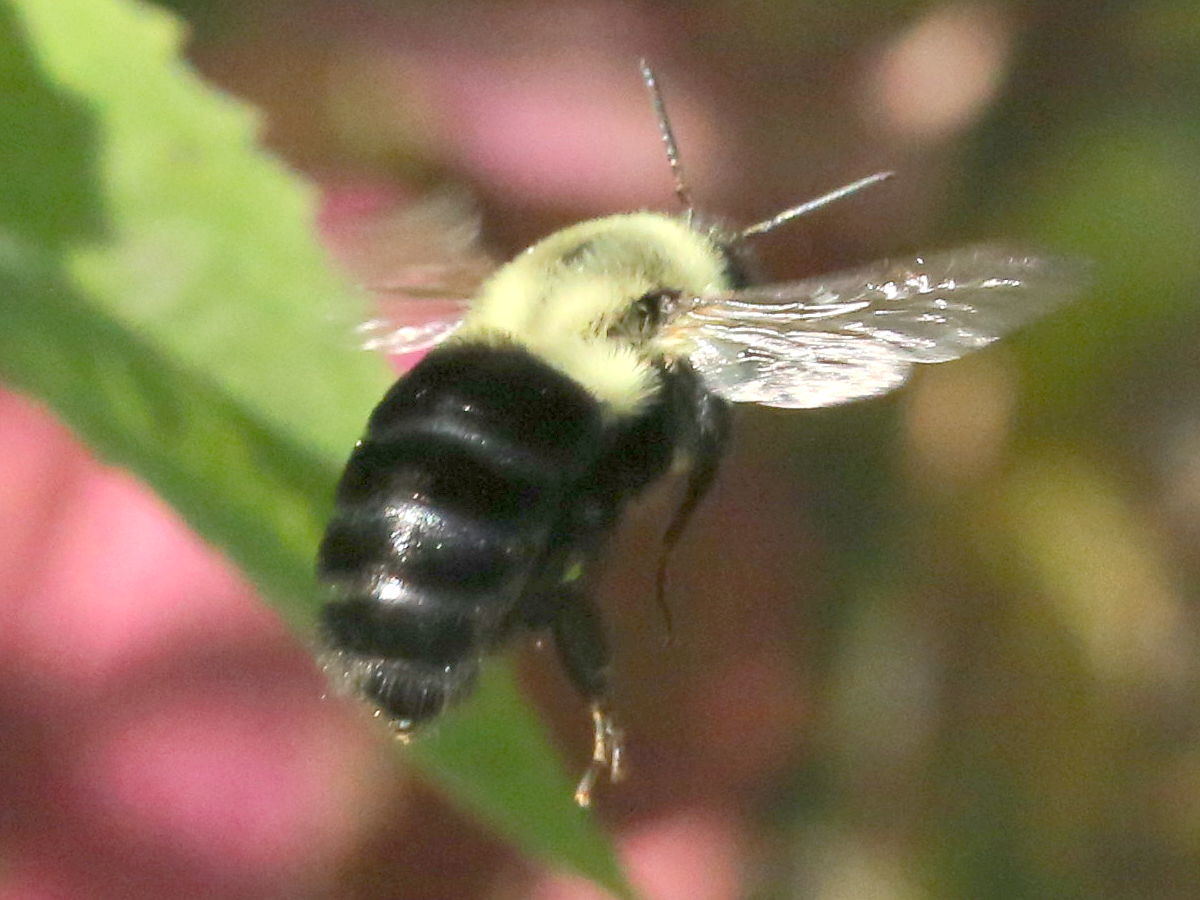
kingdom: Animalia
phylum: Arthropoda
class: Insecta
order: Hymenoptera
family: Apidae
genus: Bombus
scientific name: Bombus impatiens
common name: Common eastern bumble bee
